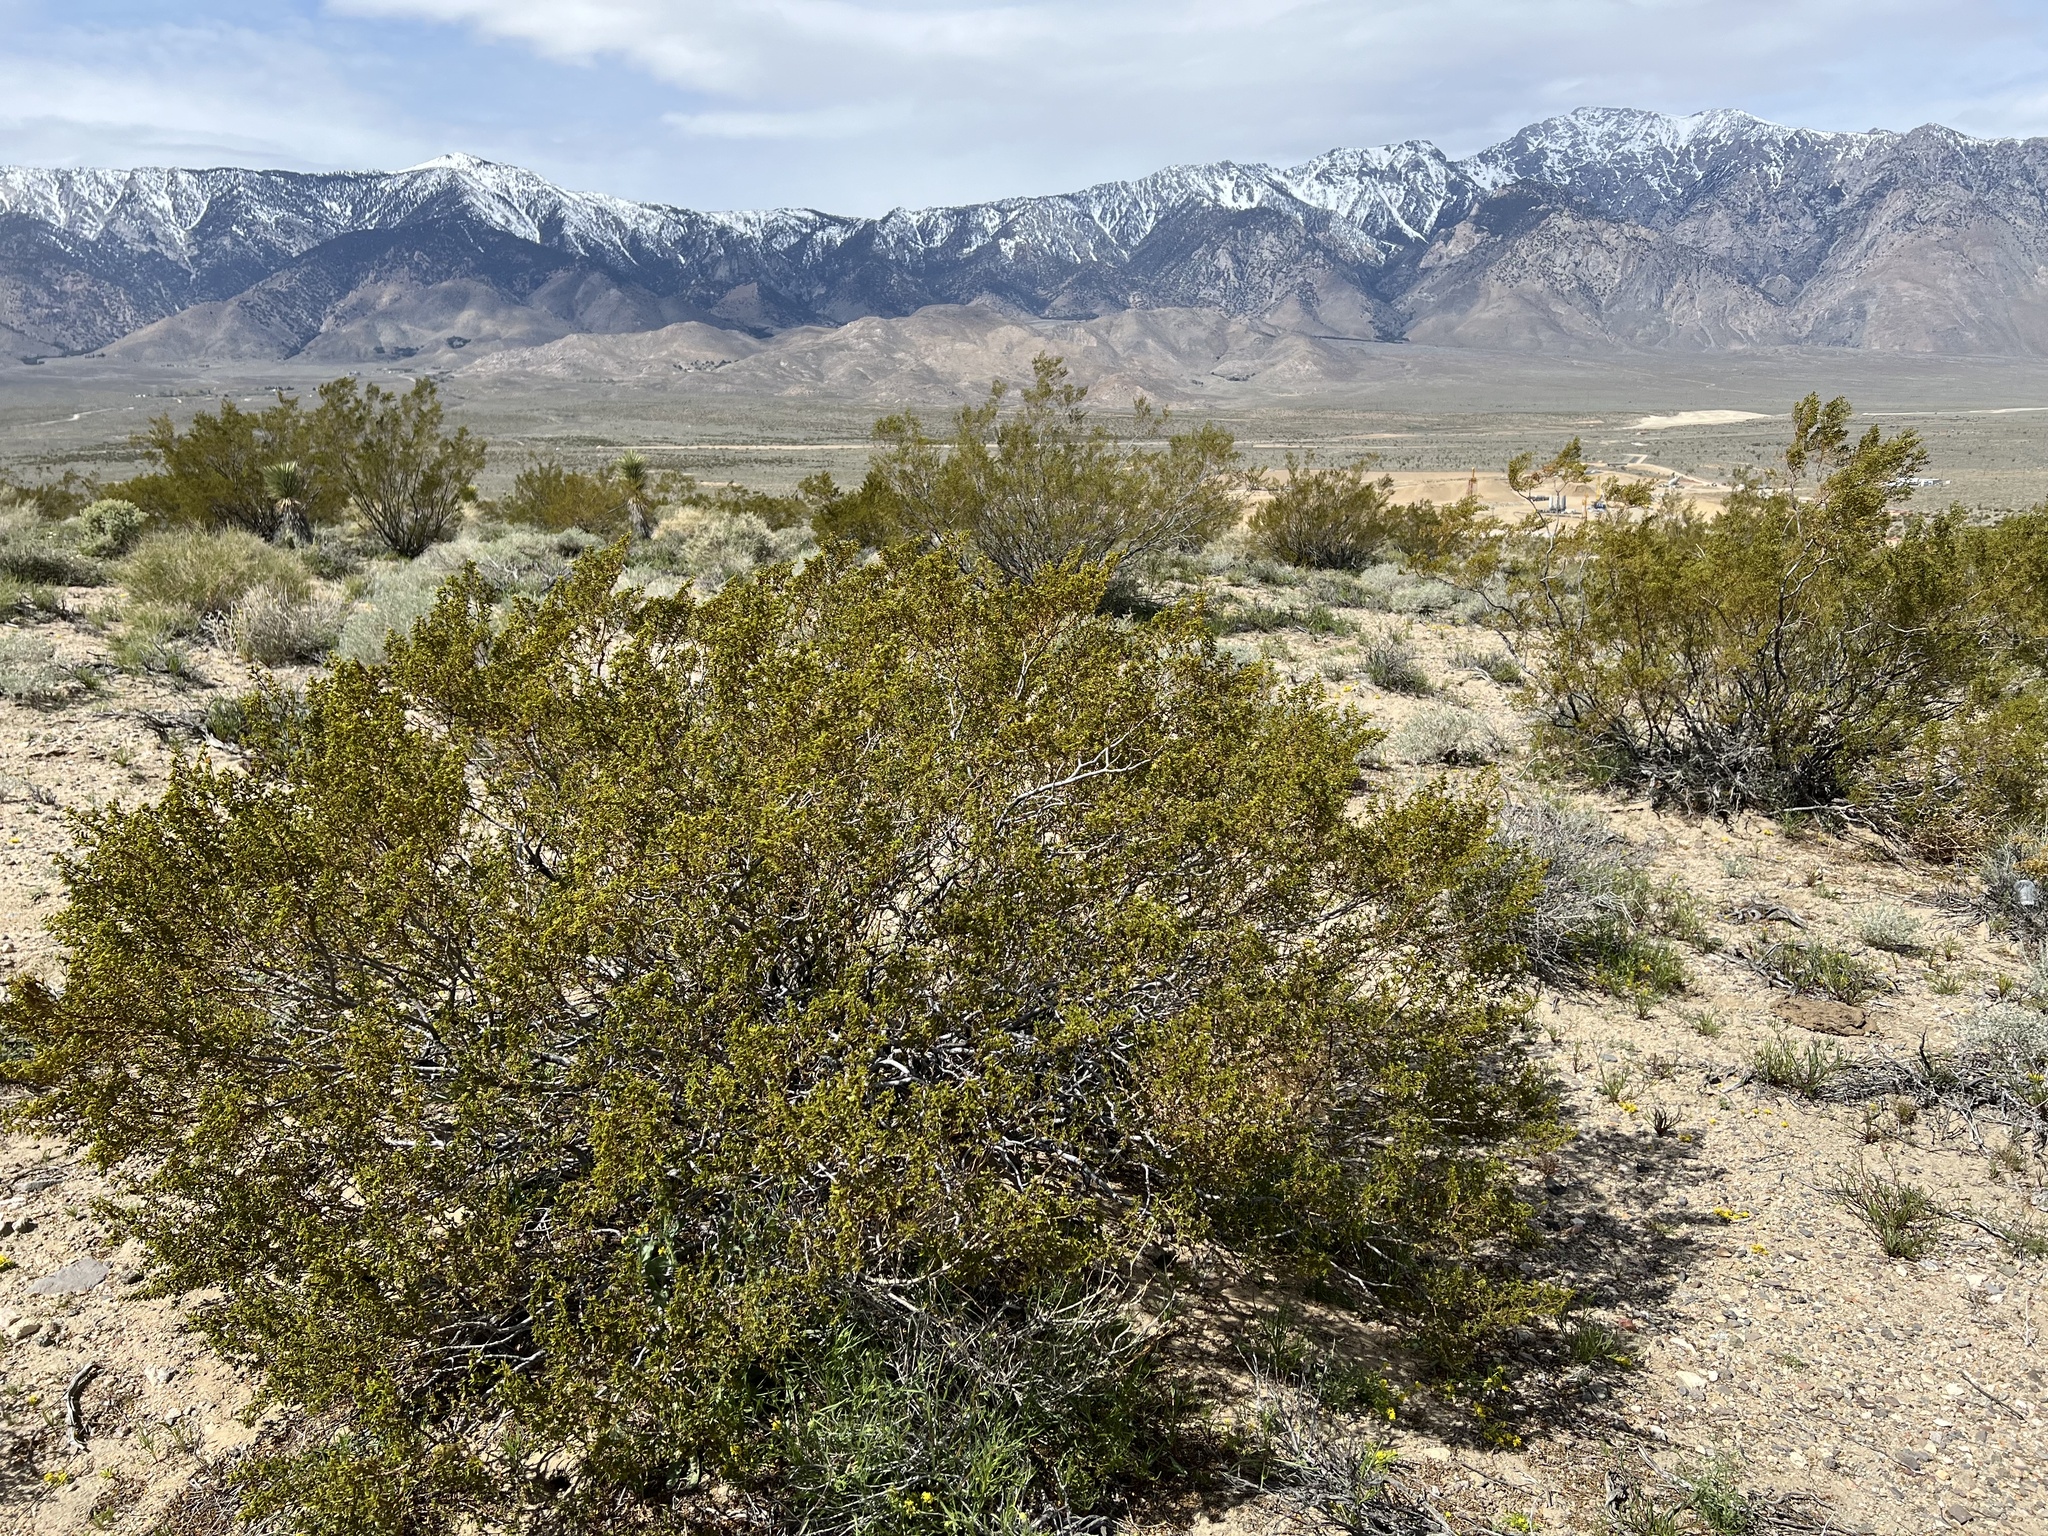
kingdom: Plantae
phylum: Tracheophyta
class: Magnoliopsida
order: Zygophyllales
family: Zygophyllaceae
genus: Larrea
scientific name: Larrea tridentata
